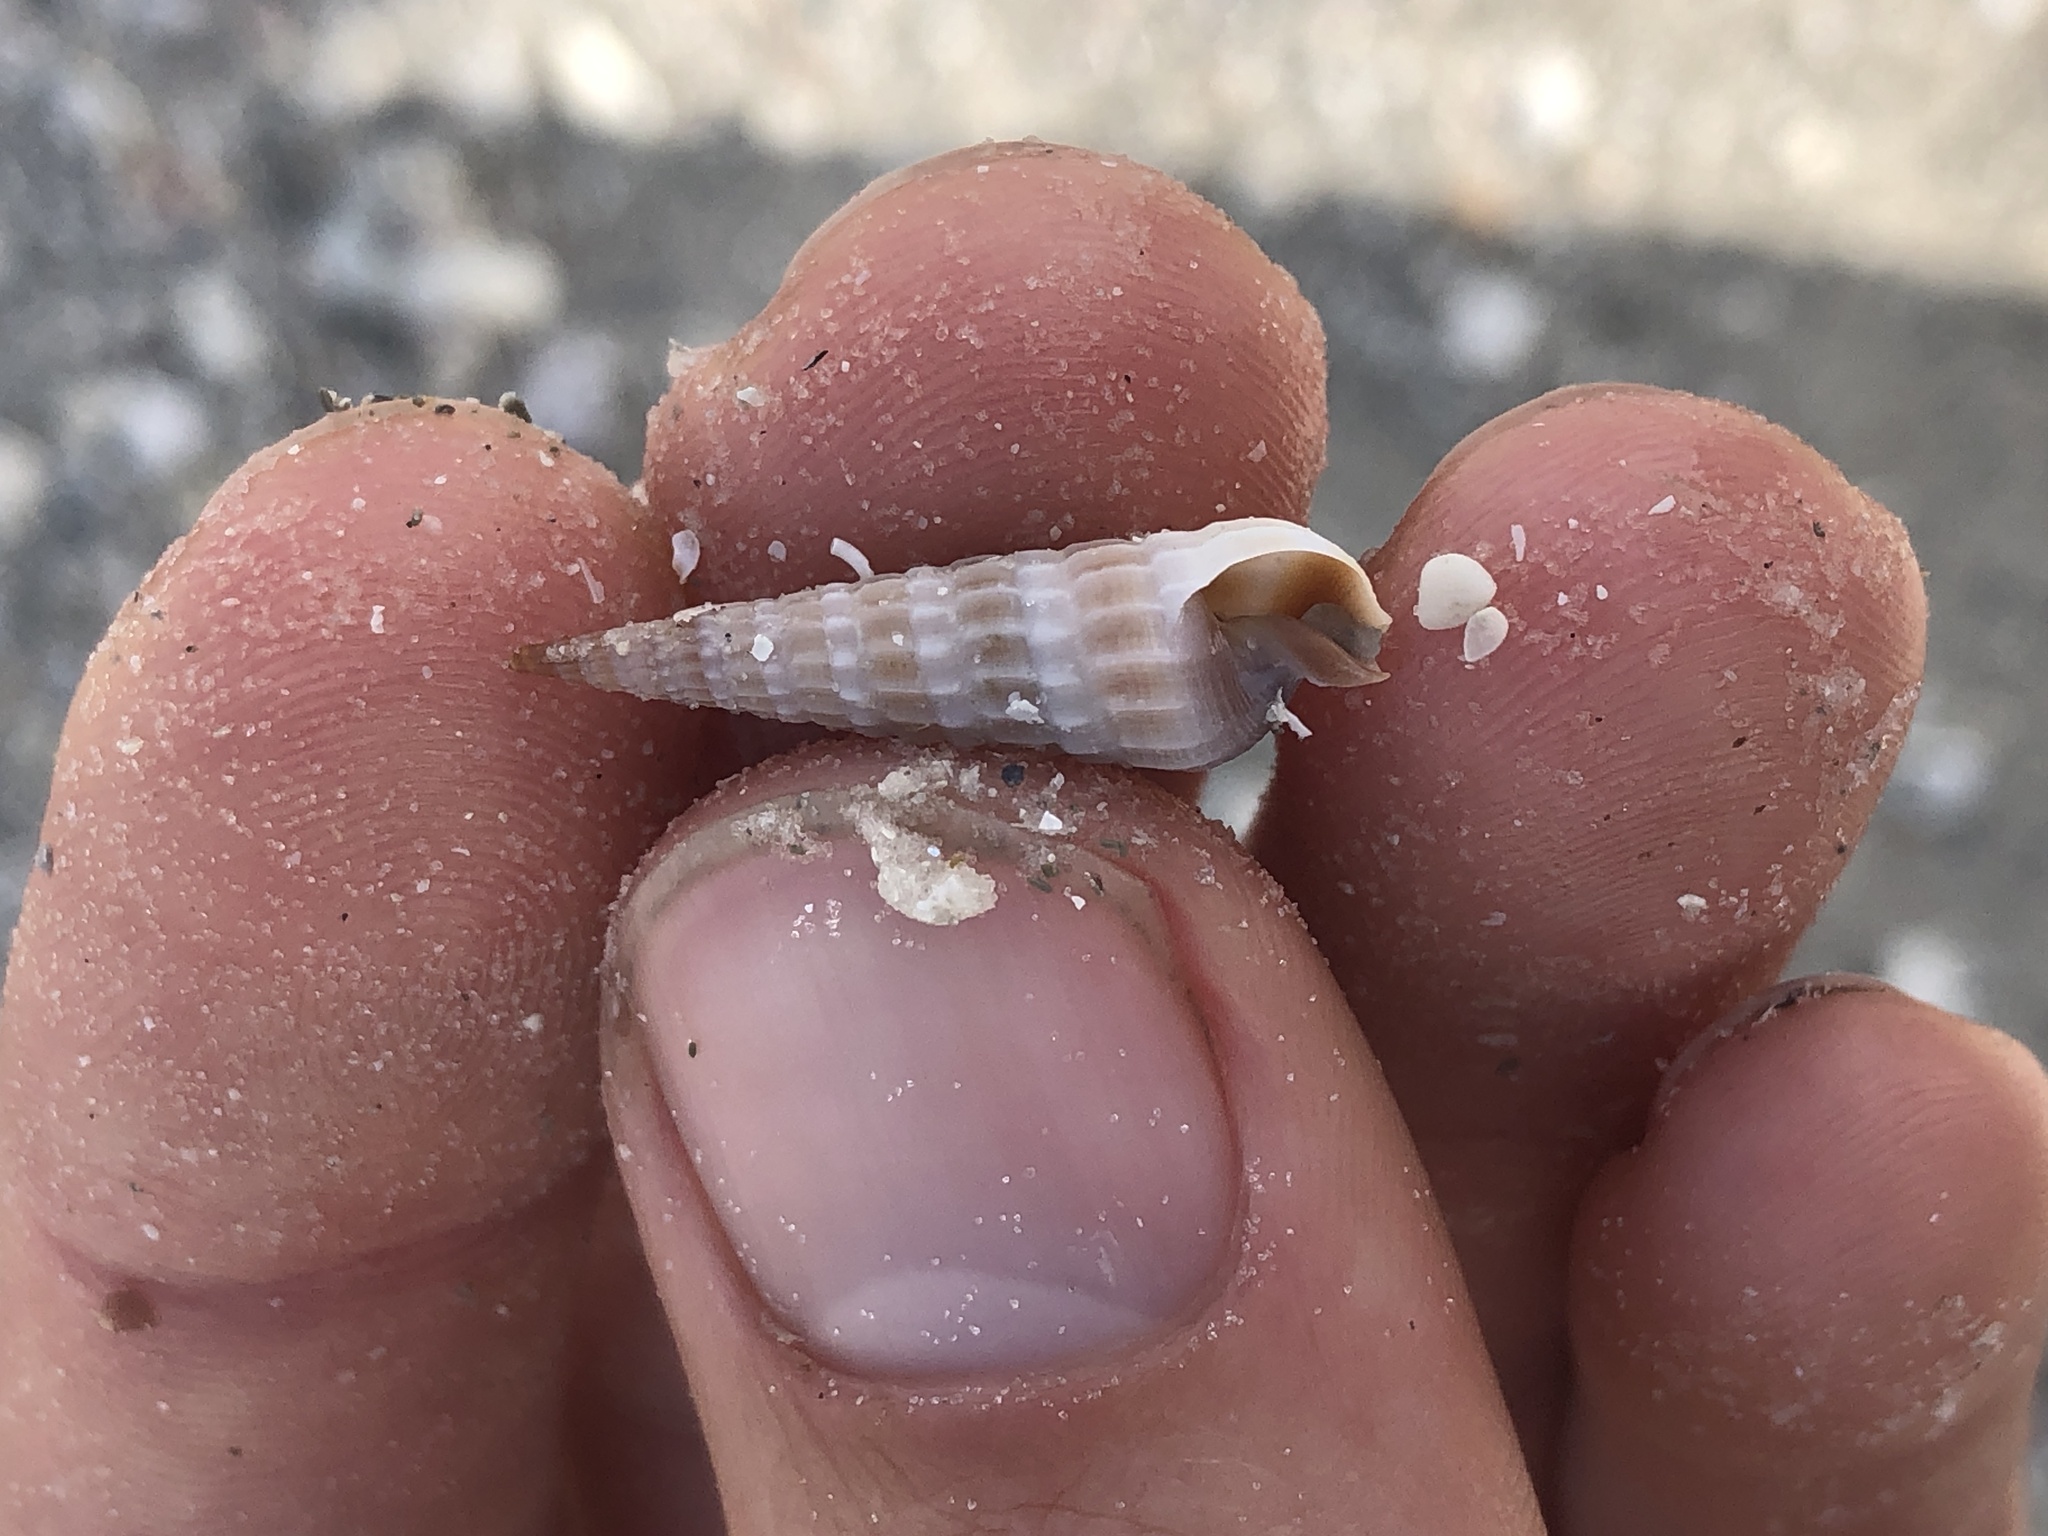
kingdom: Animalia
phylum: Mollusca
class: Gastropoda
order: Neogastropoda
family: Terebridae
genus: Neoterebra
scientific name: Neoterebra dislocata
